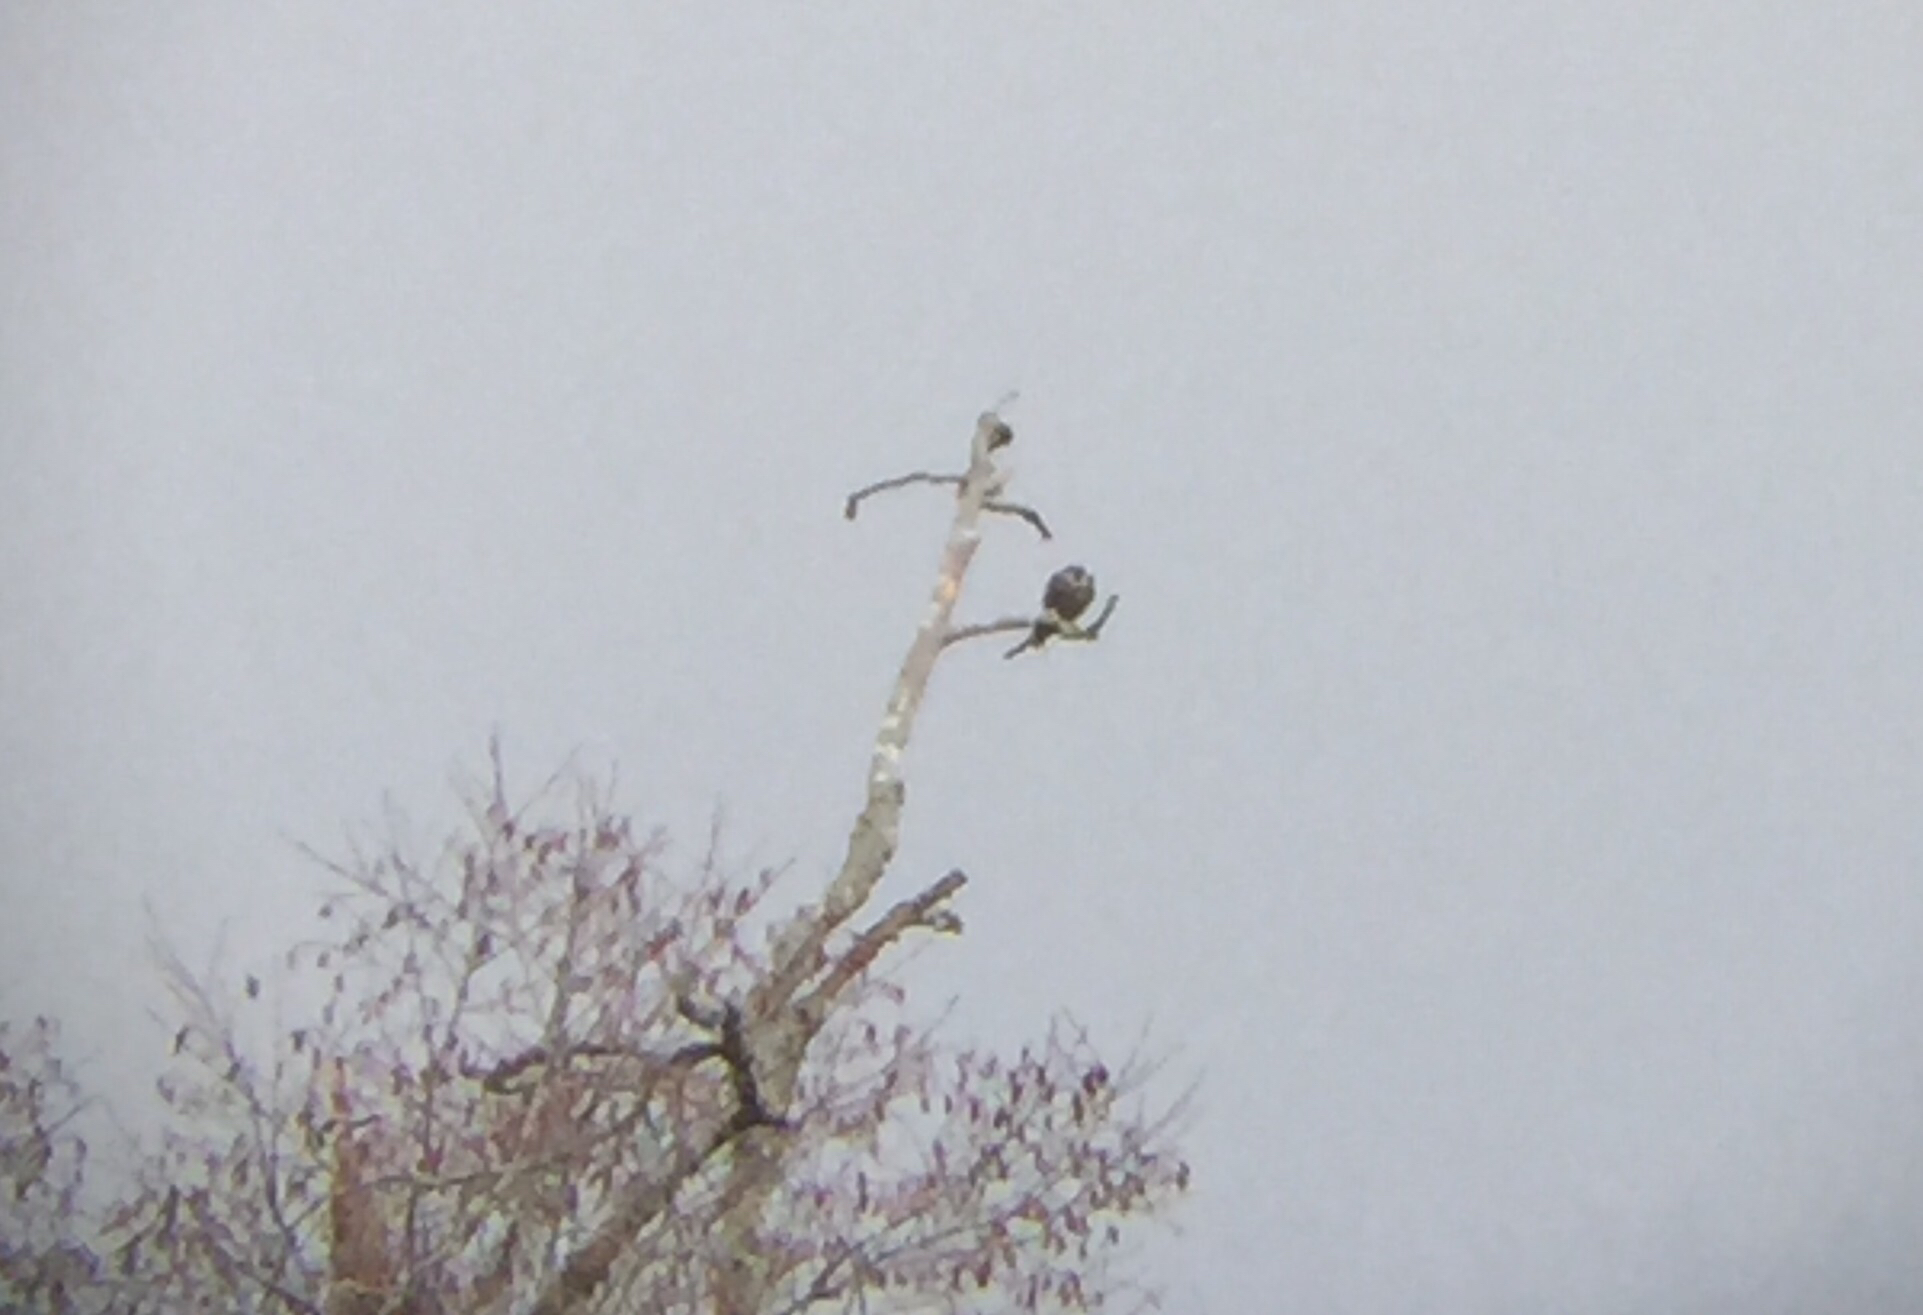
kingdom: Animalia
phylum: Chordata
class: Aves
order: Falconiformes
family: Falconidae
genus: Falco
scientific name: Falco peregrinus
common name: Peregrine falcon
